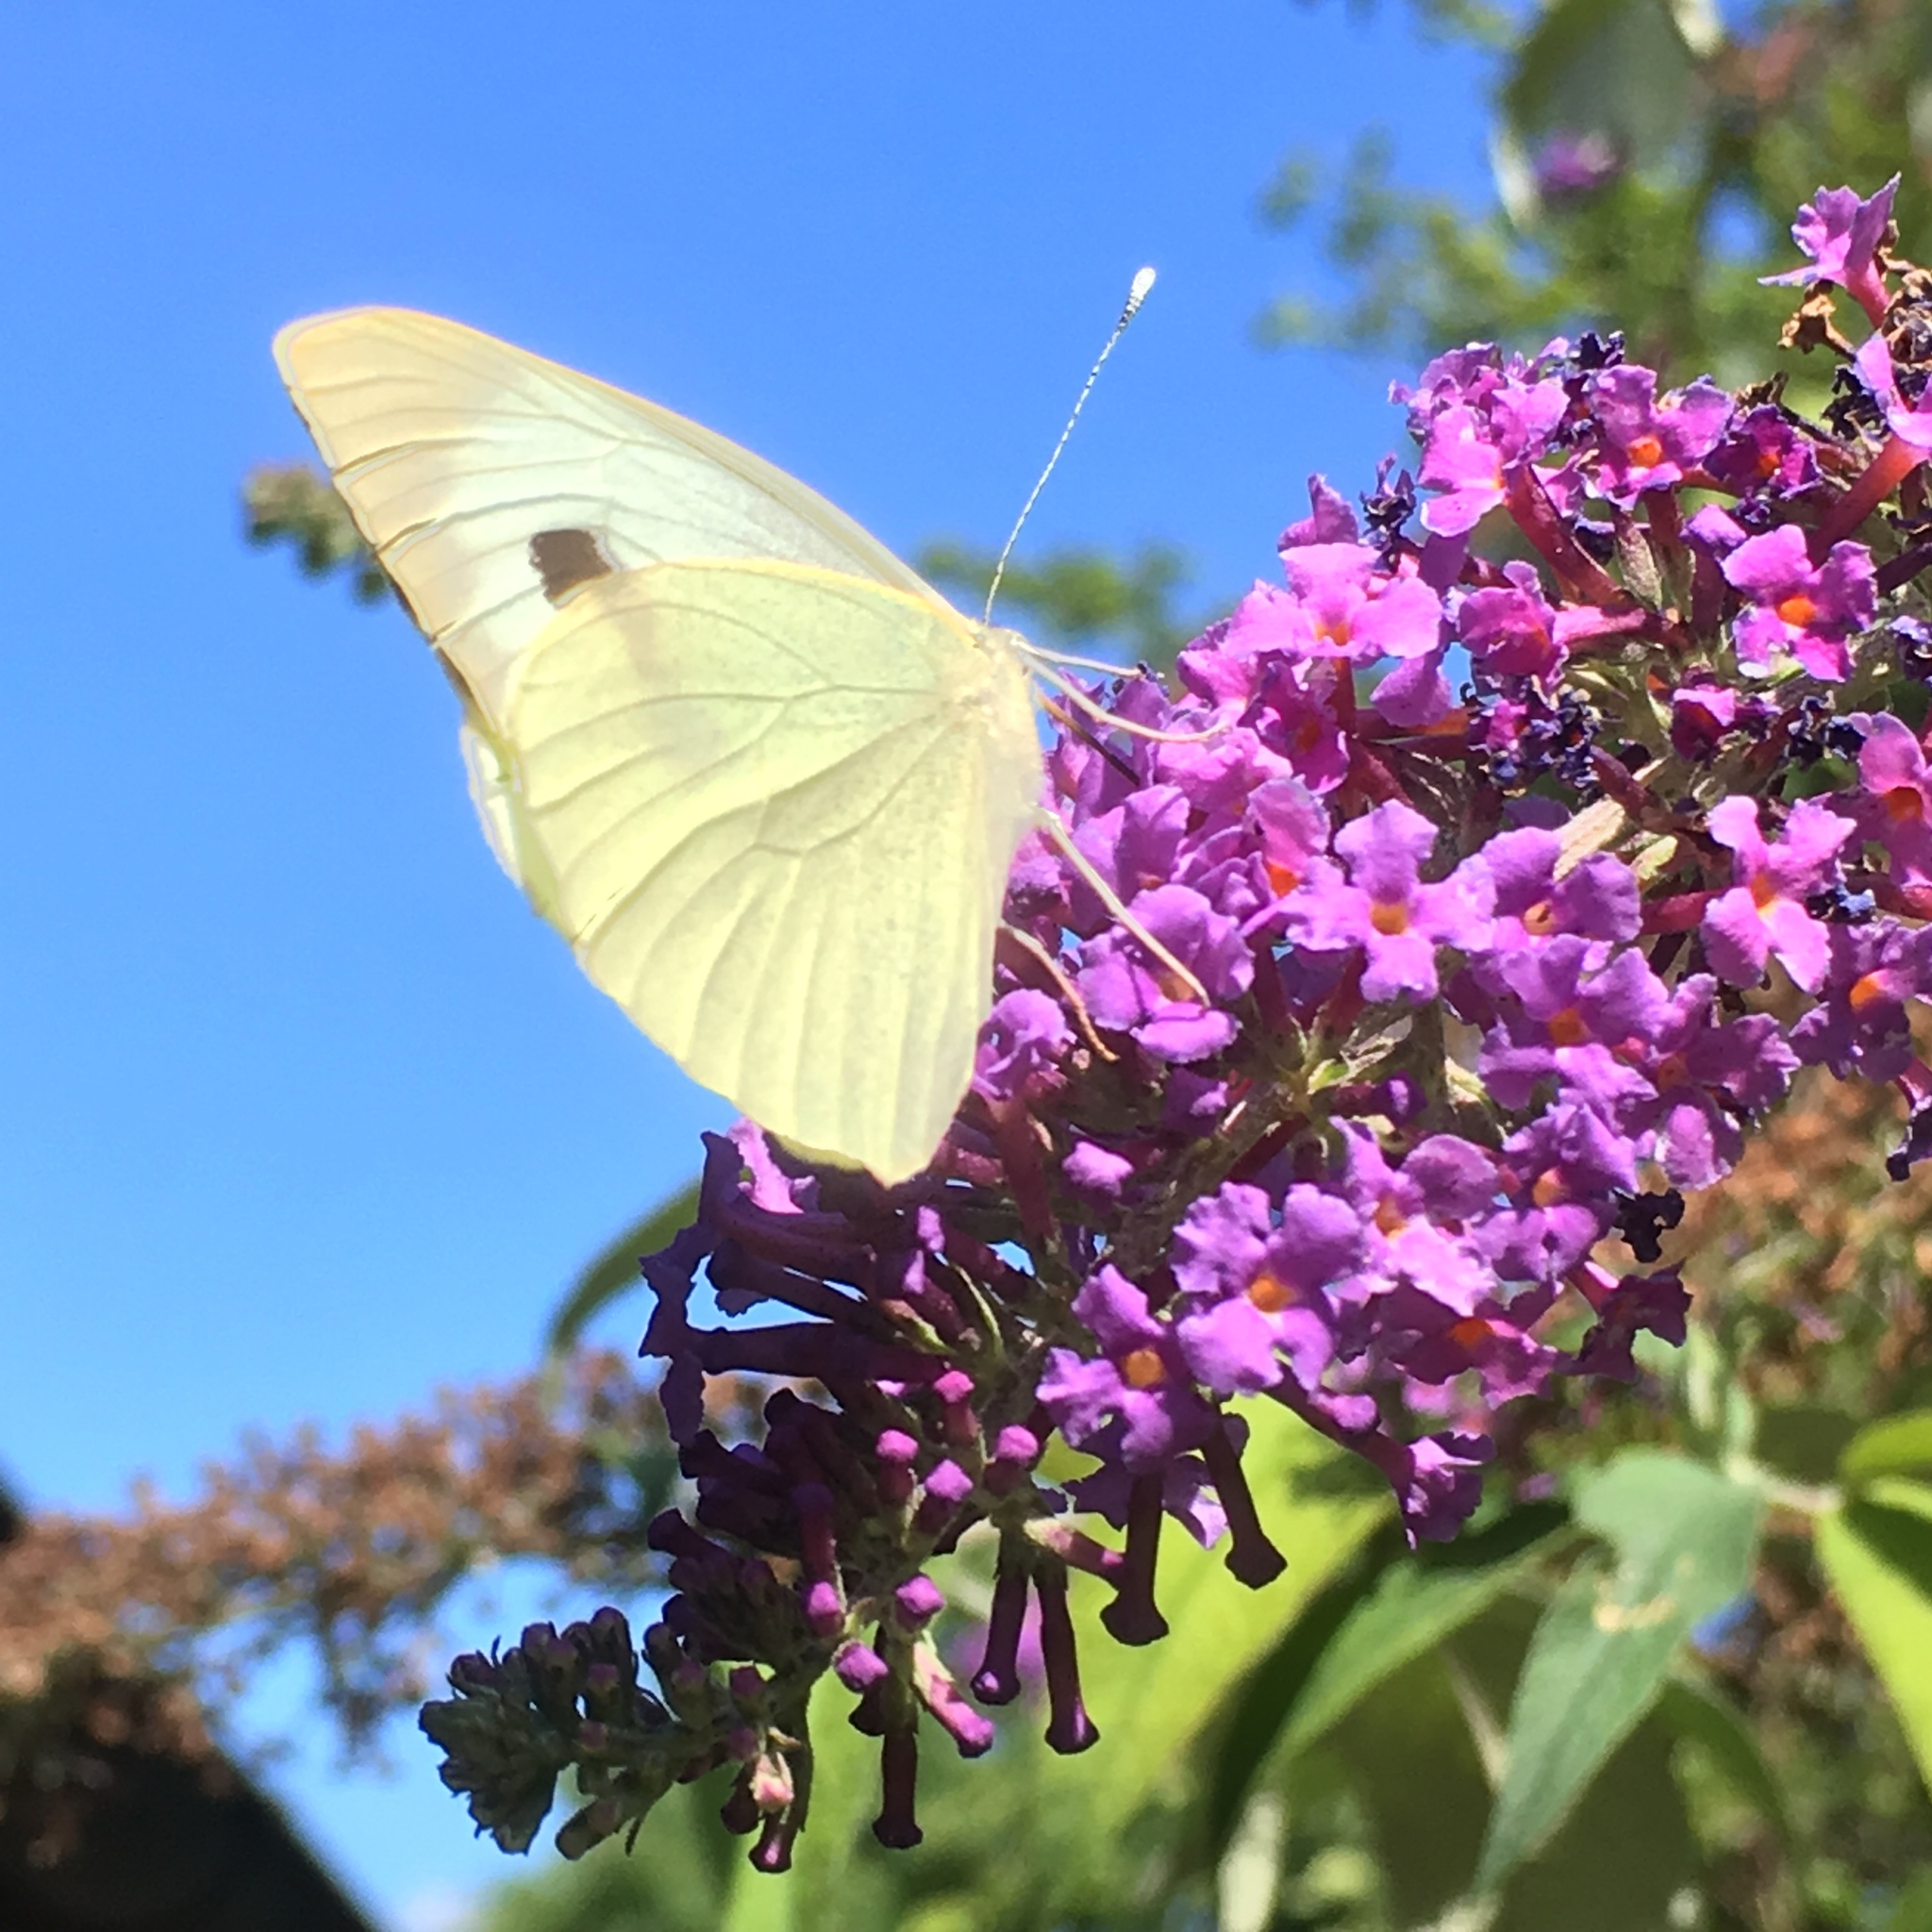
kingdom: Animalia
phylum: Arthropoda
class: Insecta
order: Lepidoptera
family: Pieridae
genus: Pieris
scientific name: Pieris brassicae
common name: Large white
